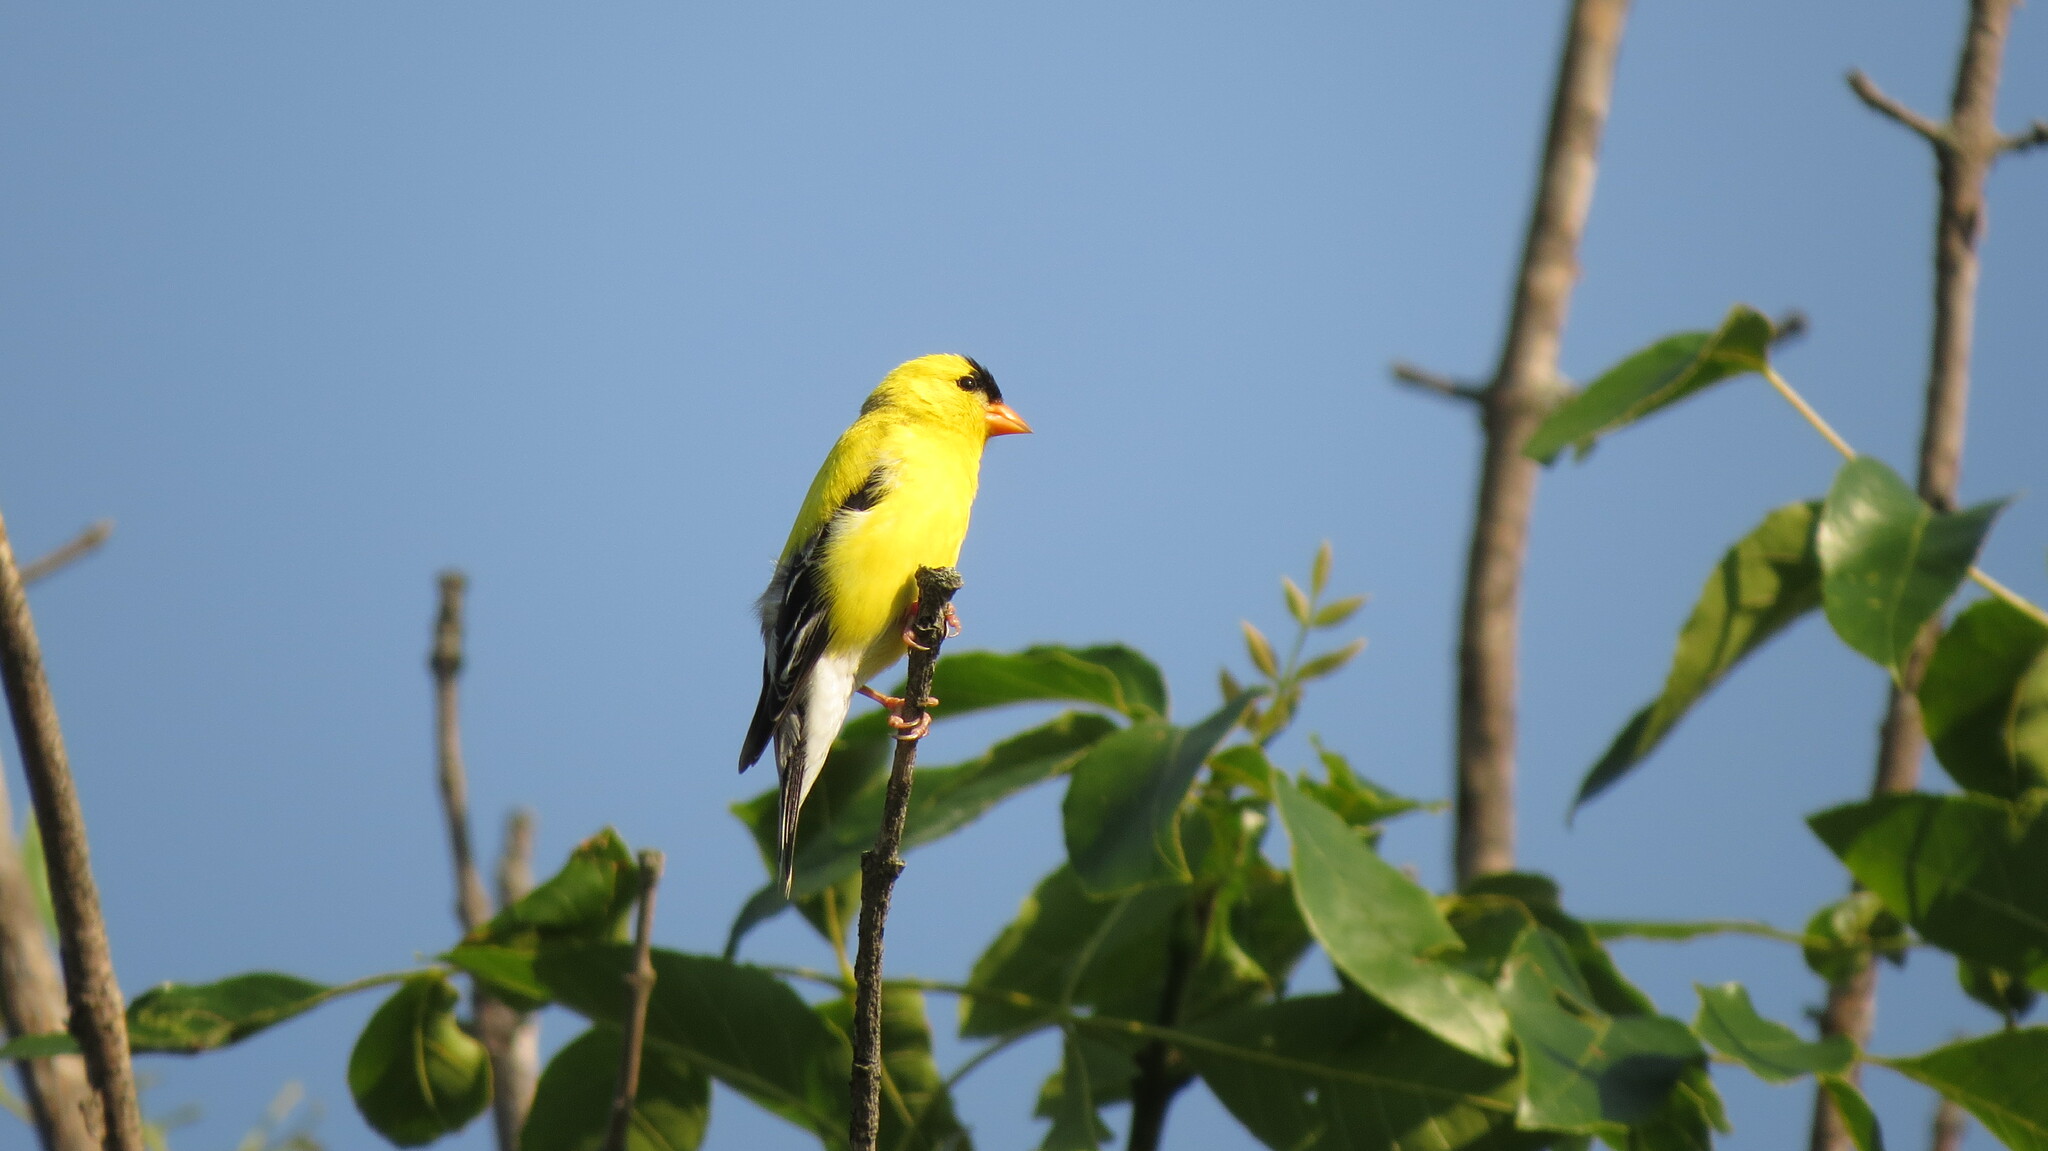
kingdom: Animalia
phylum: Chordata
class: Aves
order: Passeriformes
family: Fringillidae
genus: Spinus
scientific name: Spinus tristis
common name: American goldfinch
